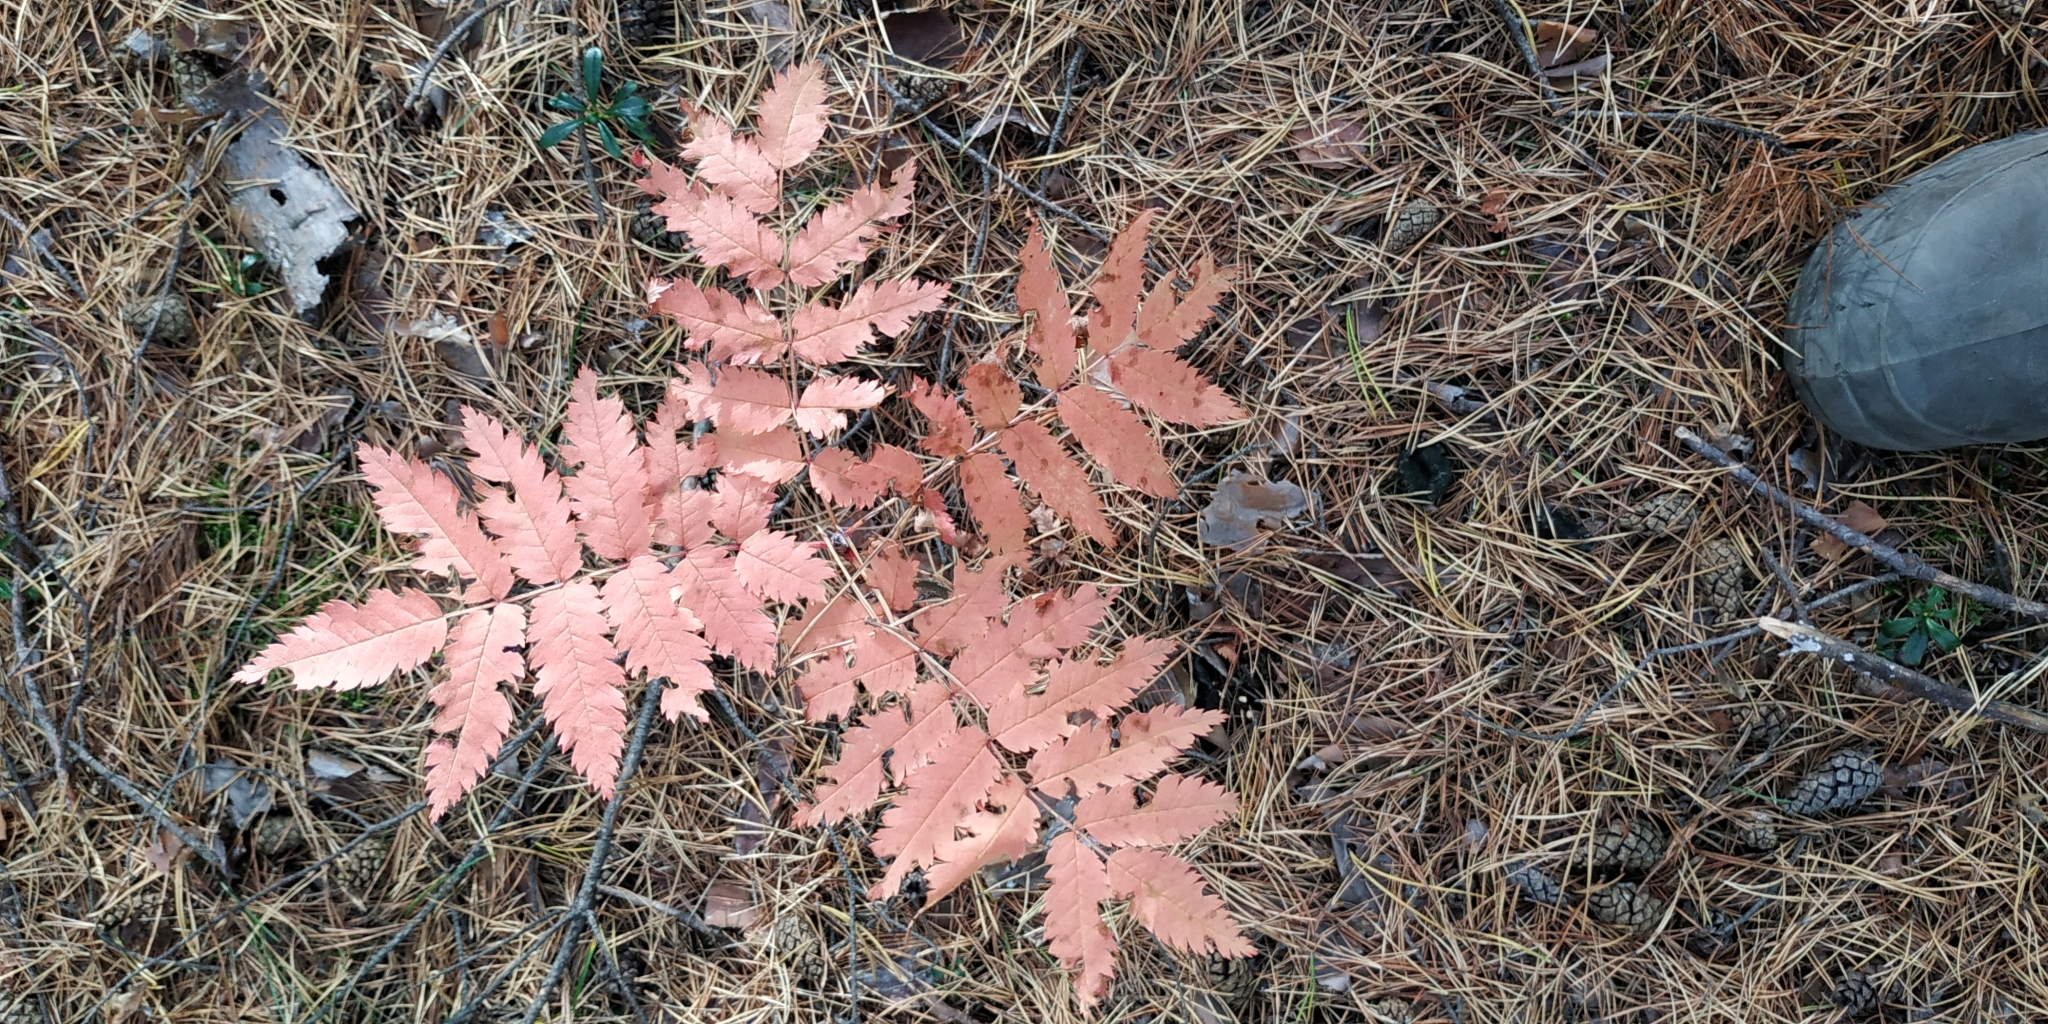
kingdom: Plantae
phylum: Tracheophyta
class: Magnoliopsida
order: Rosales
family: Rosaceae
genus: Sorbus
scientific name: Sorbus aucuparia
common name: Rowan
